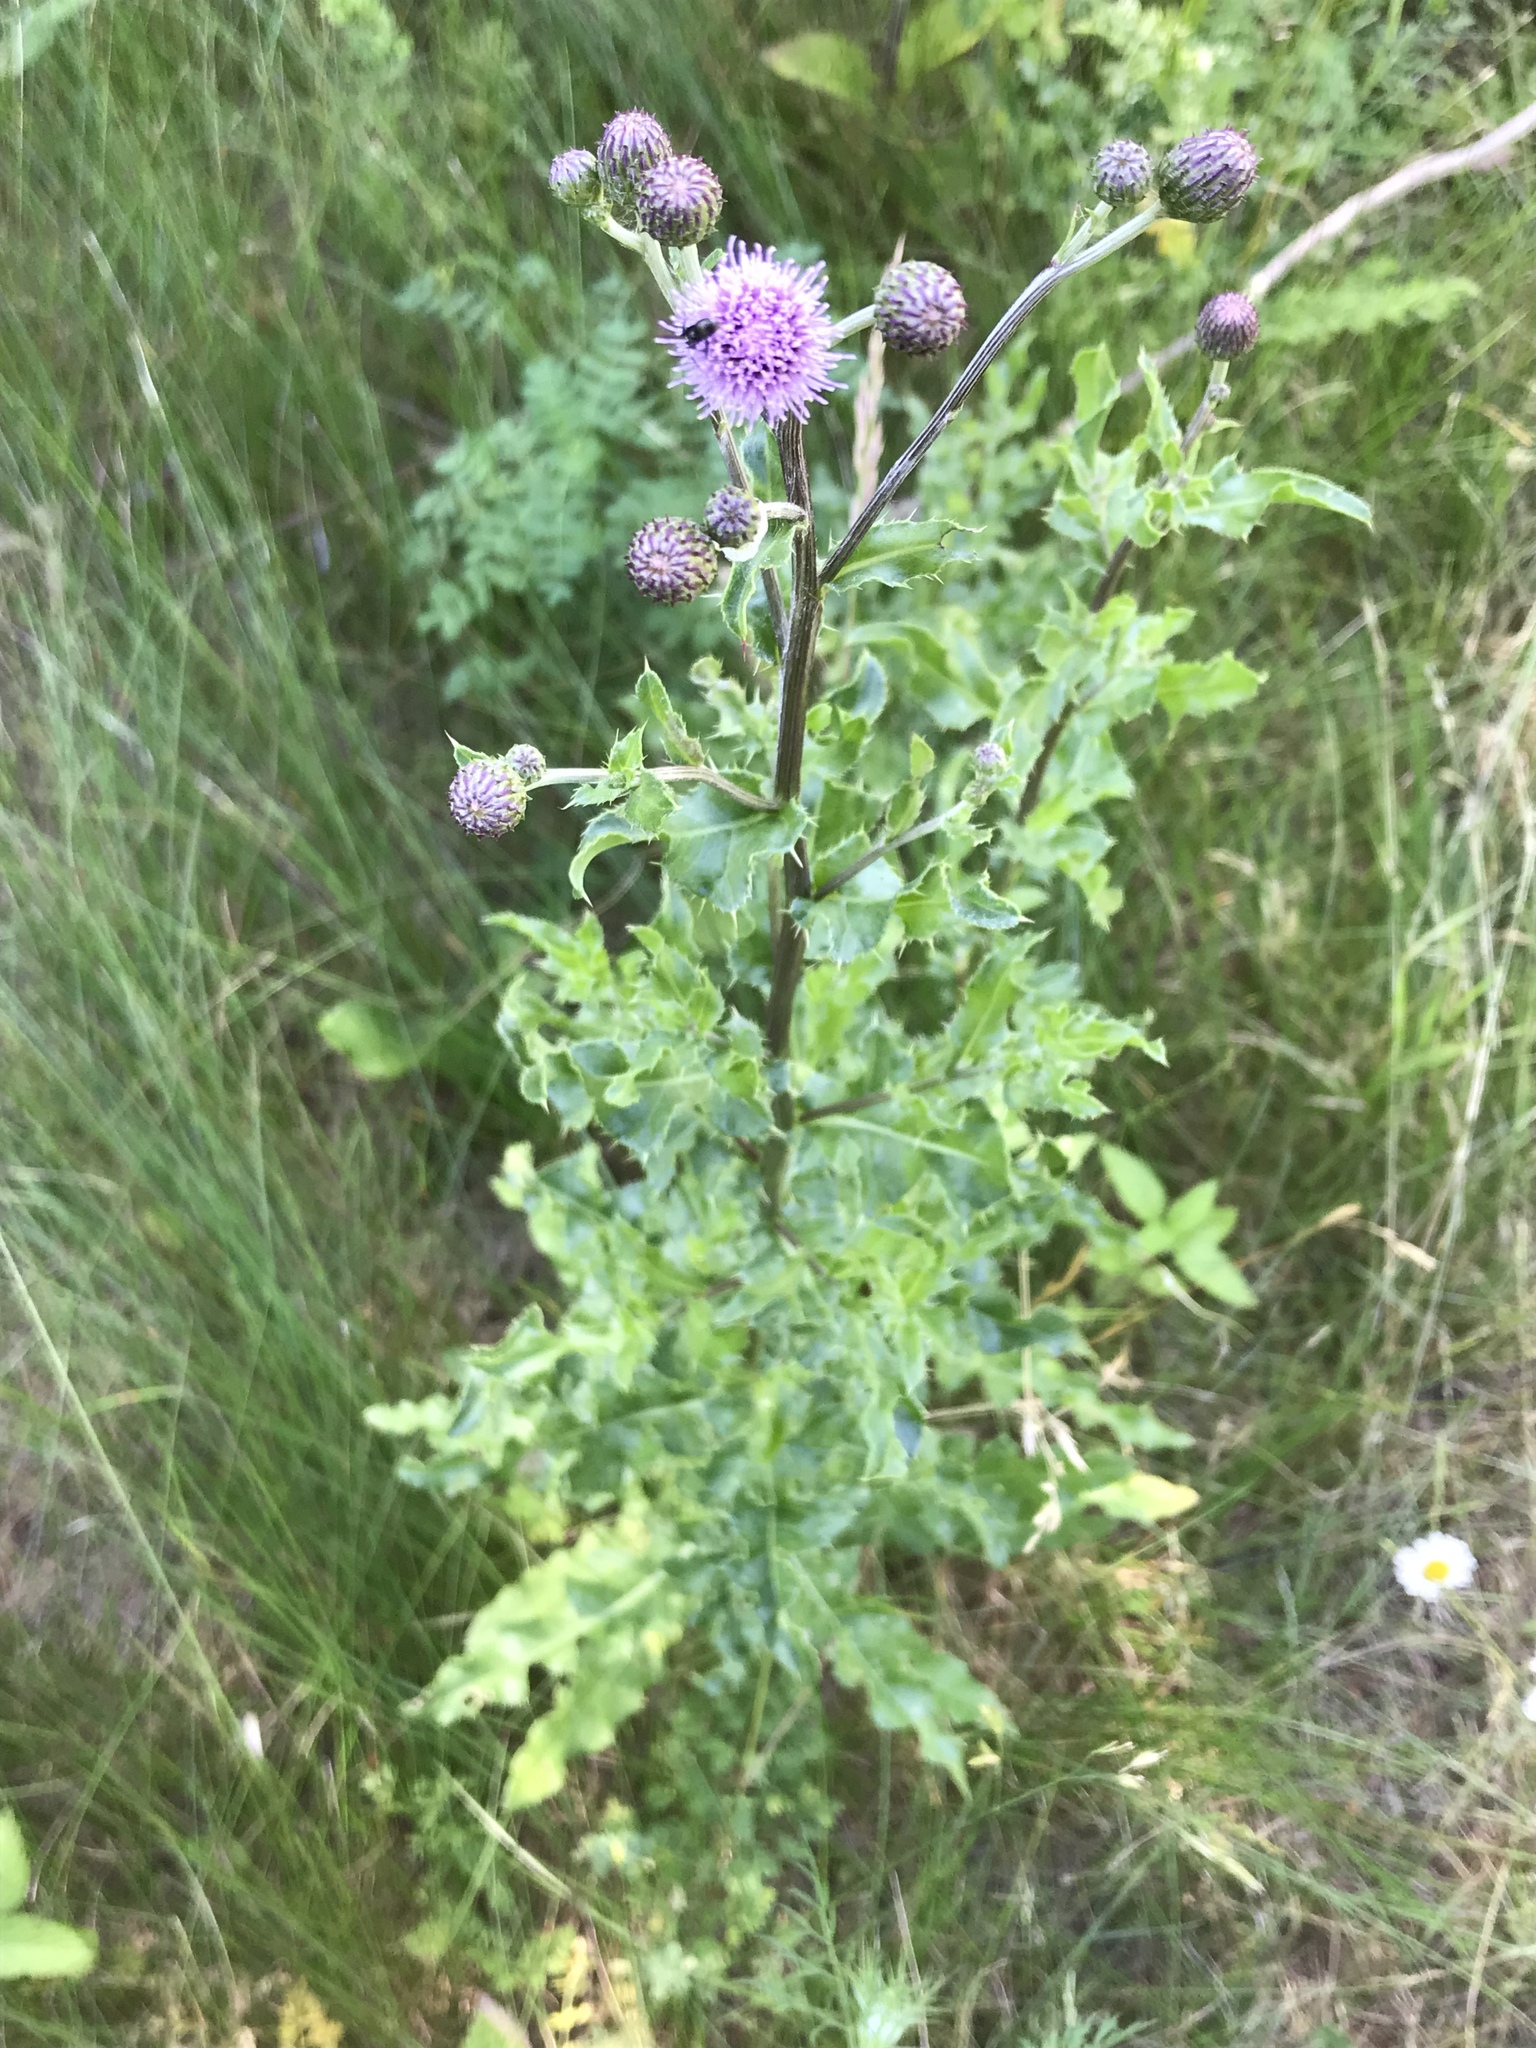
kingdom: Plantae
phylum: Tracheophyta
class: Magnoliopsida
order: Asterales
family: Asteraceae
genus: Cirsium
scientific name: Cirsium arvense
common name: Creeping thistle
